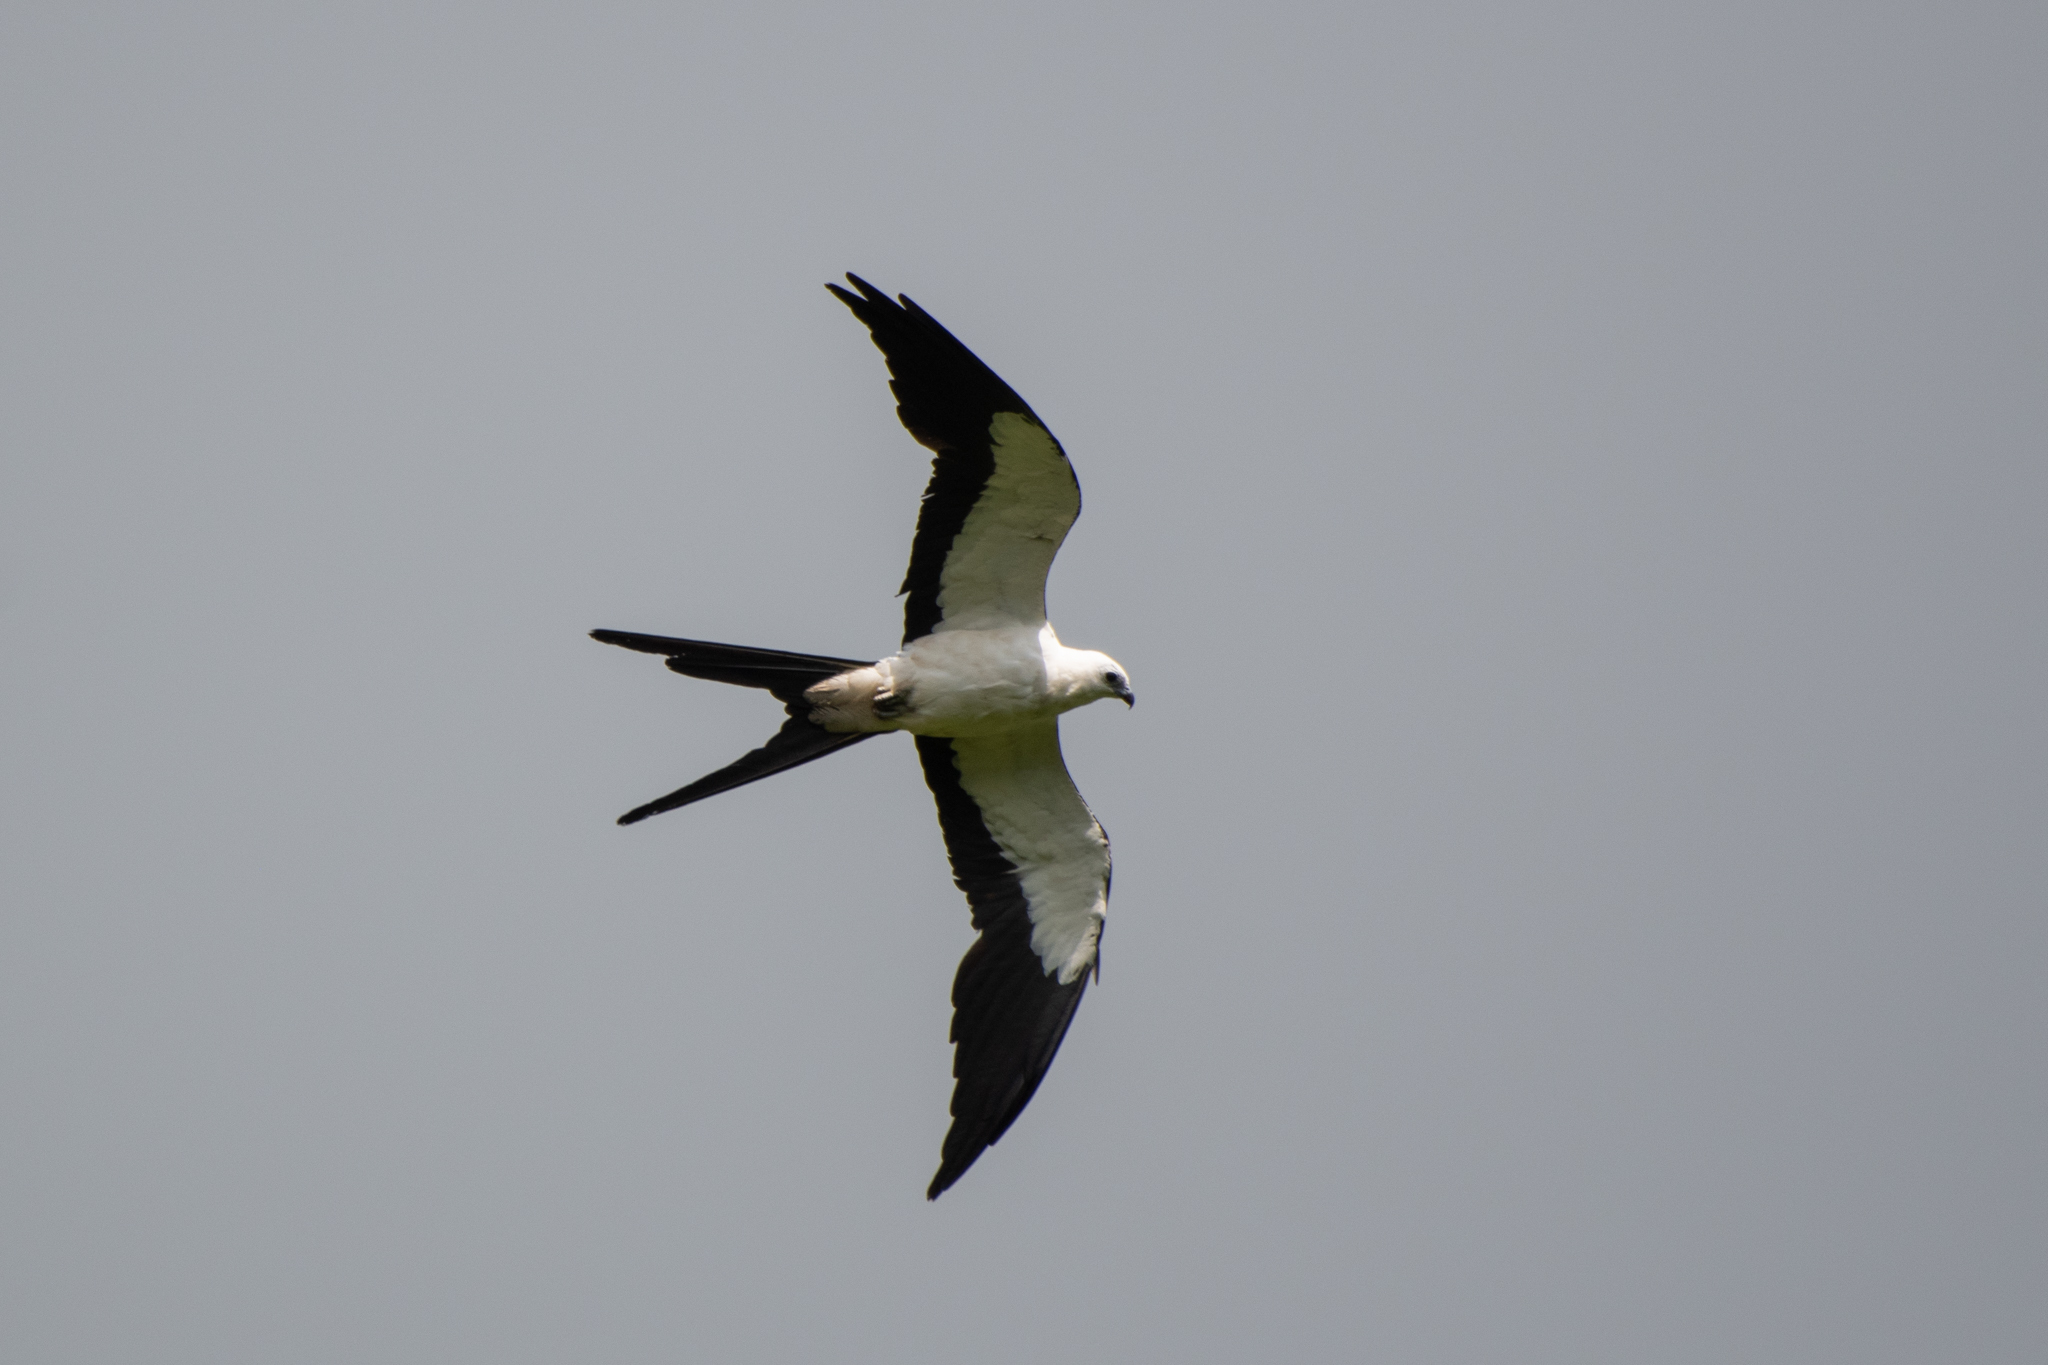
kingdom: Animalia
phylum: Chordata
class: Aves
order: Accipitriformes
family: Accipitridae
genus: Elanoides
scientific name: Elanoides forficatus
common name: Swallow-tailed kite
